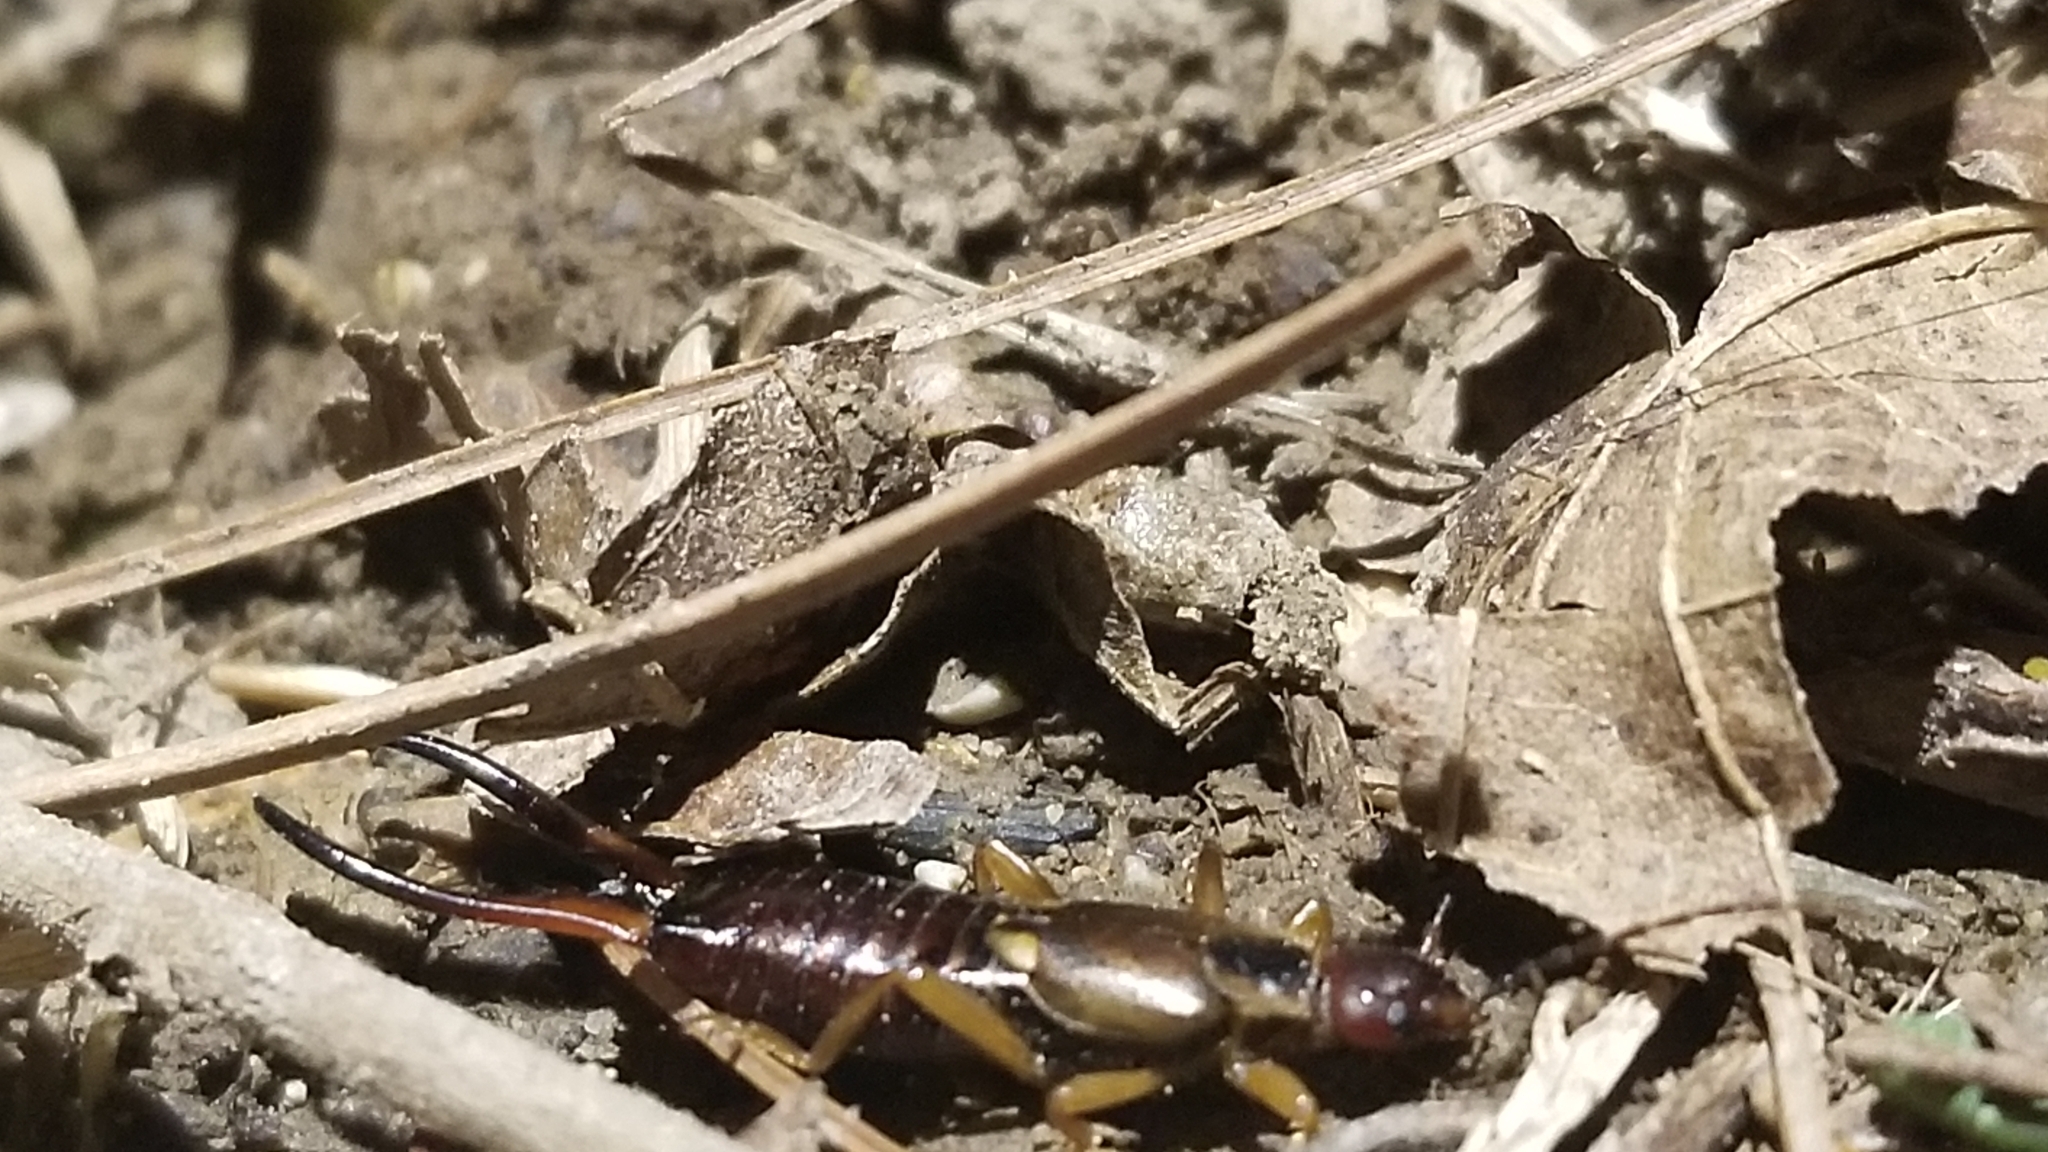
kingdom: Animalia
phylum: Arthropoda
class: Insecta
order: Dermaptera
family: Forficulidae
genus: Forficula
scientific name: Forficula
